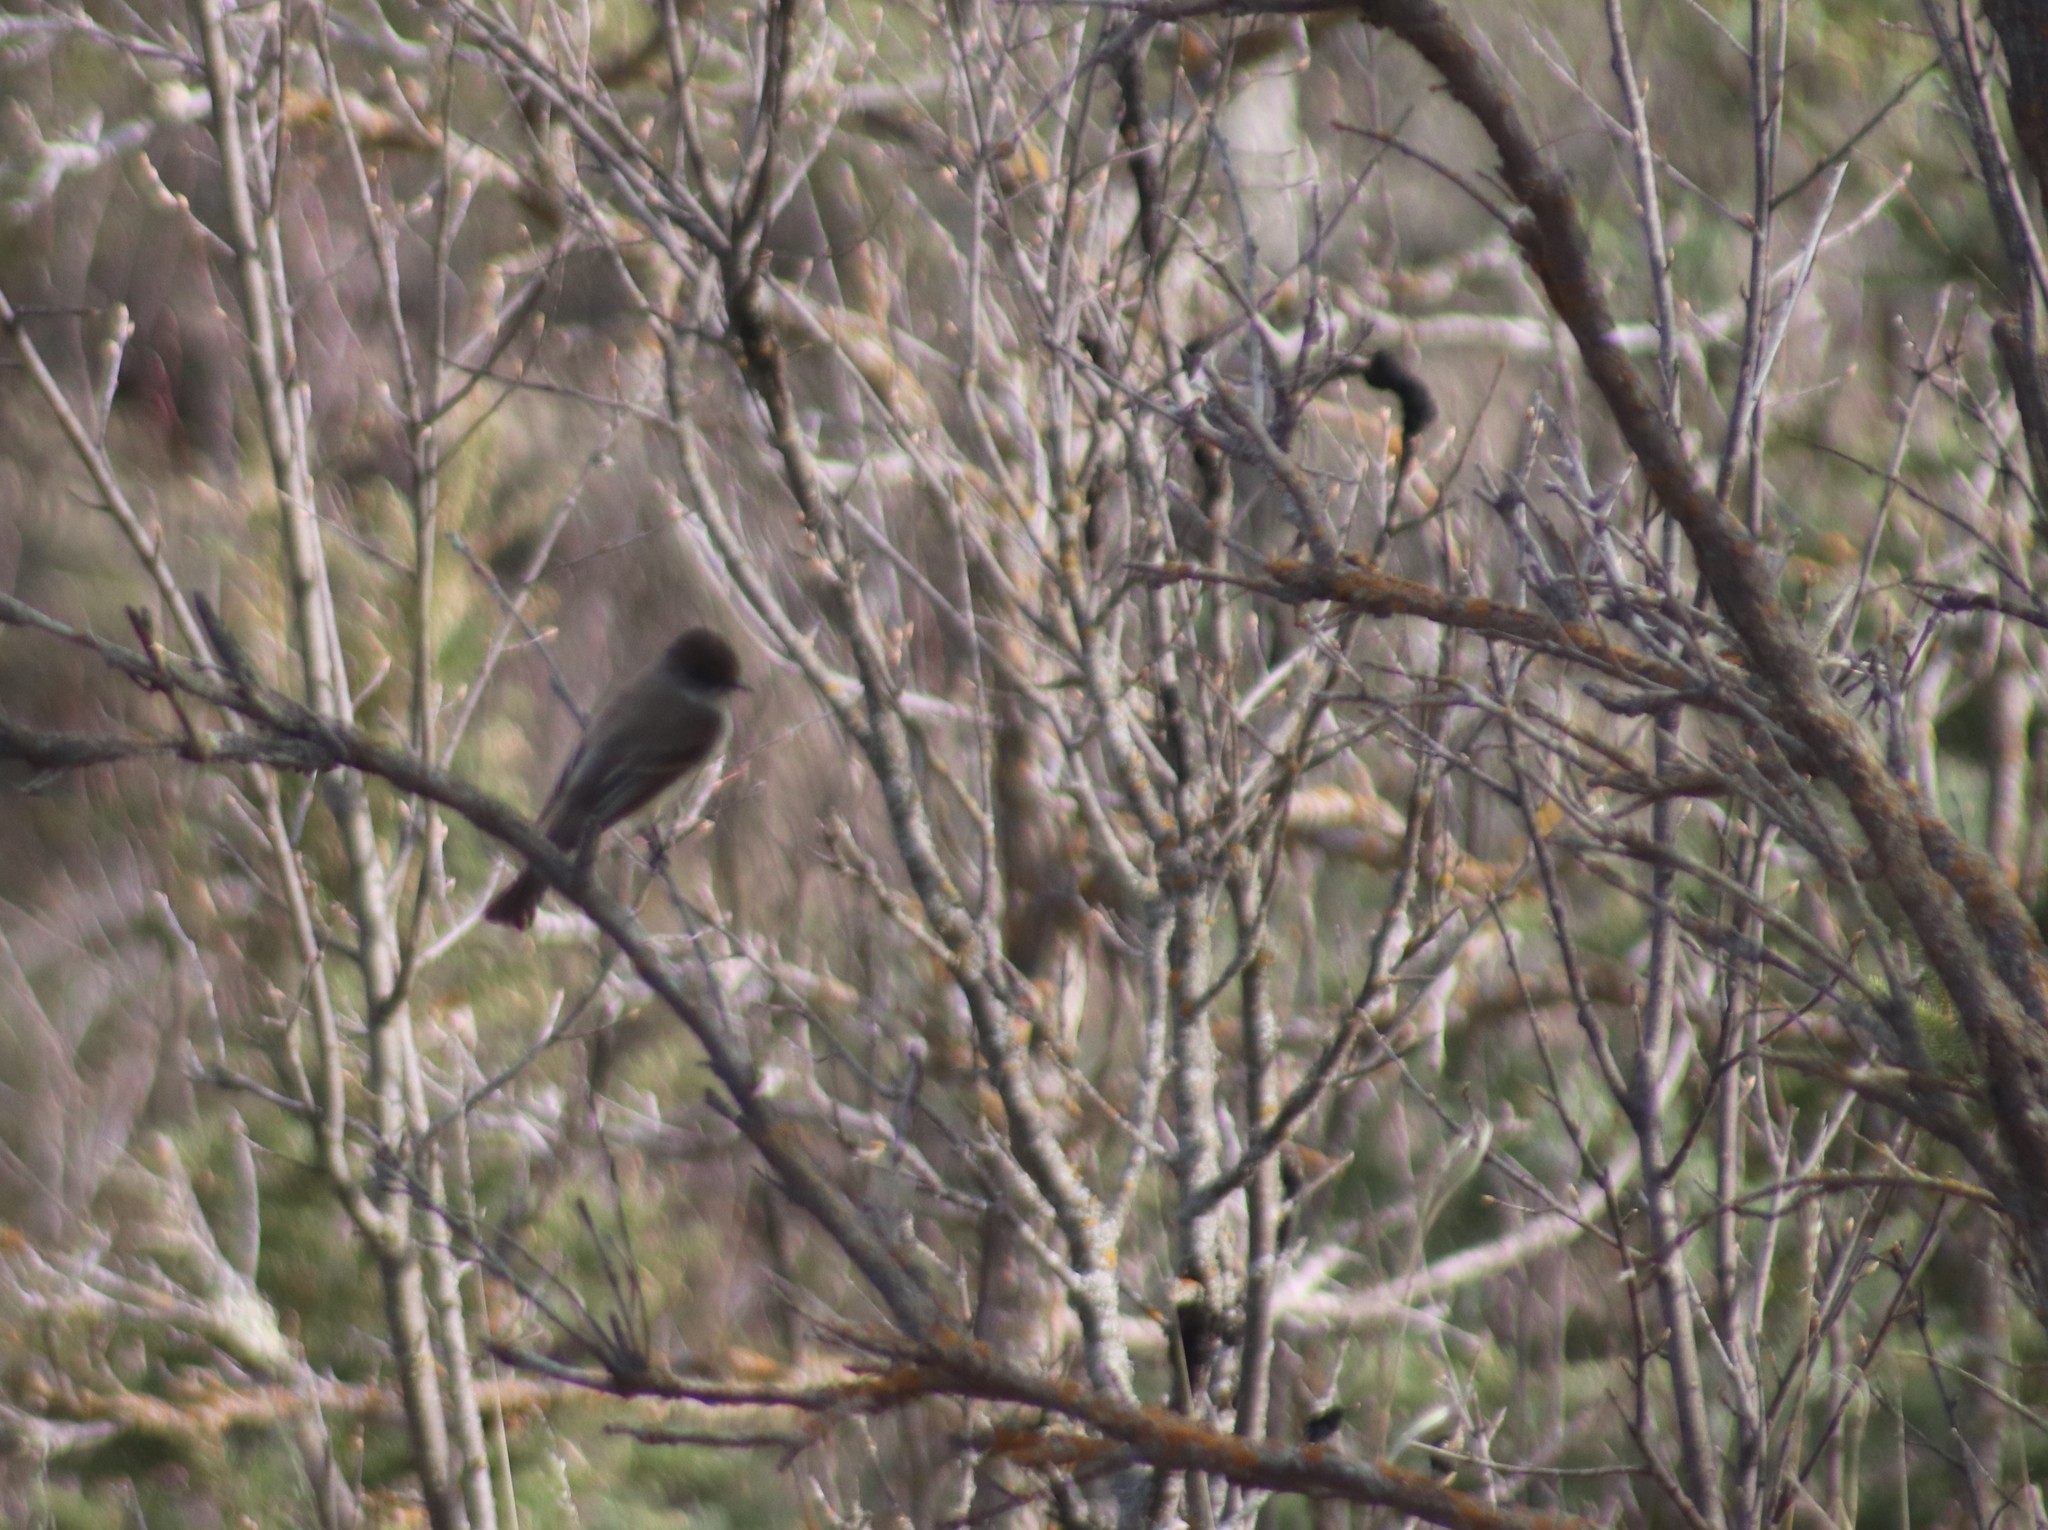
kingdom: Animalia
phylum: Chordata
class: Aves
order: Passeriformes
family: Tyrannidae
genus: Sayornis
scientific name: Sayornis phoebe
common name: Eastern phoebe
